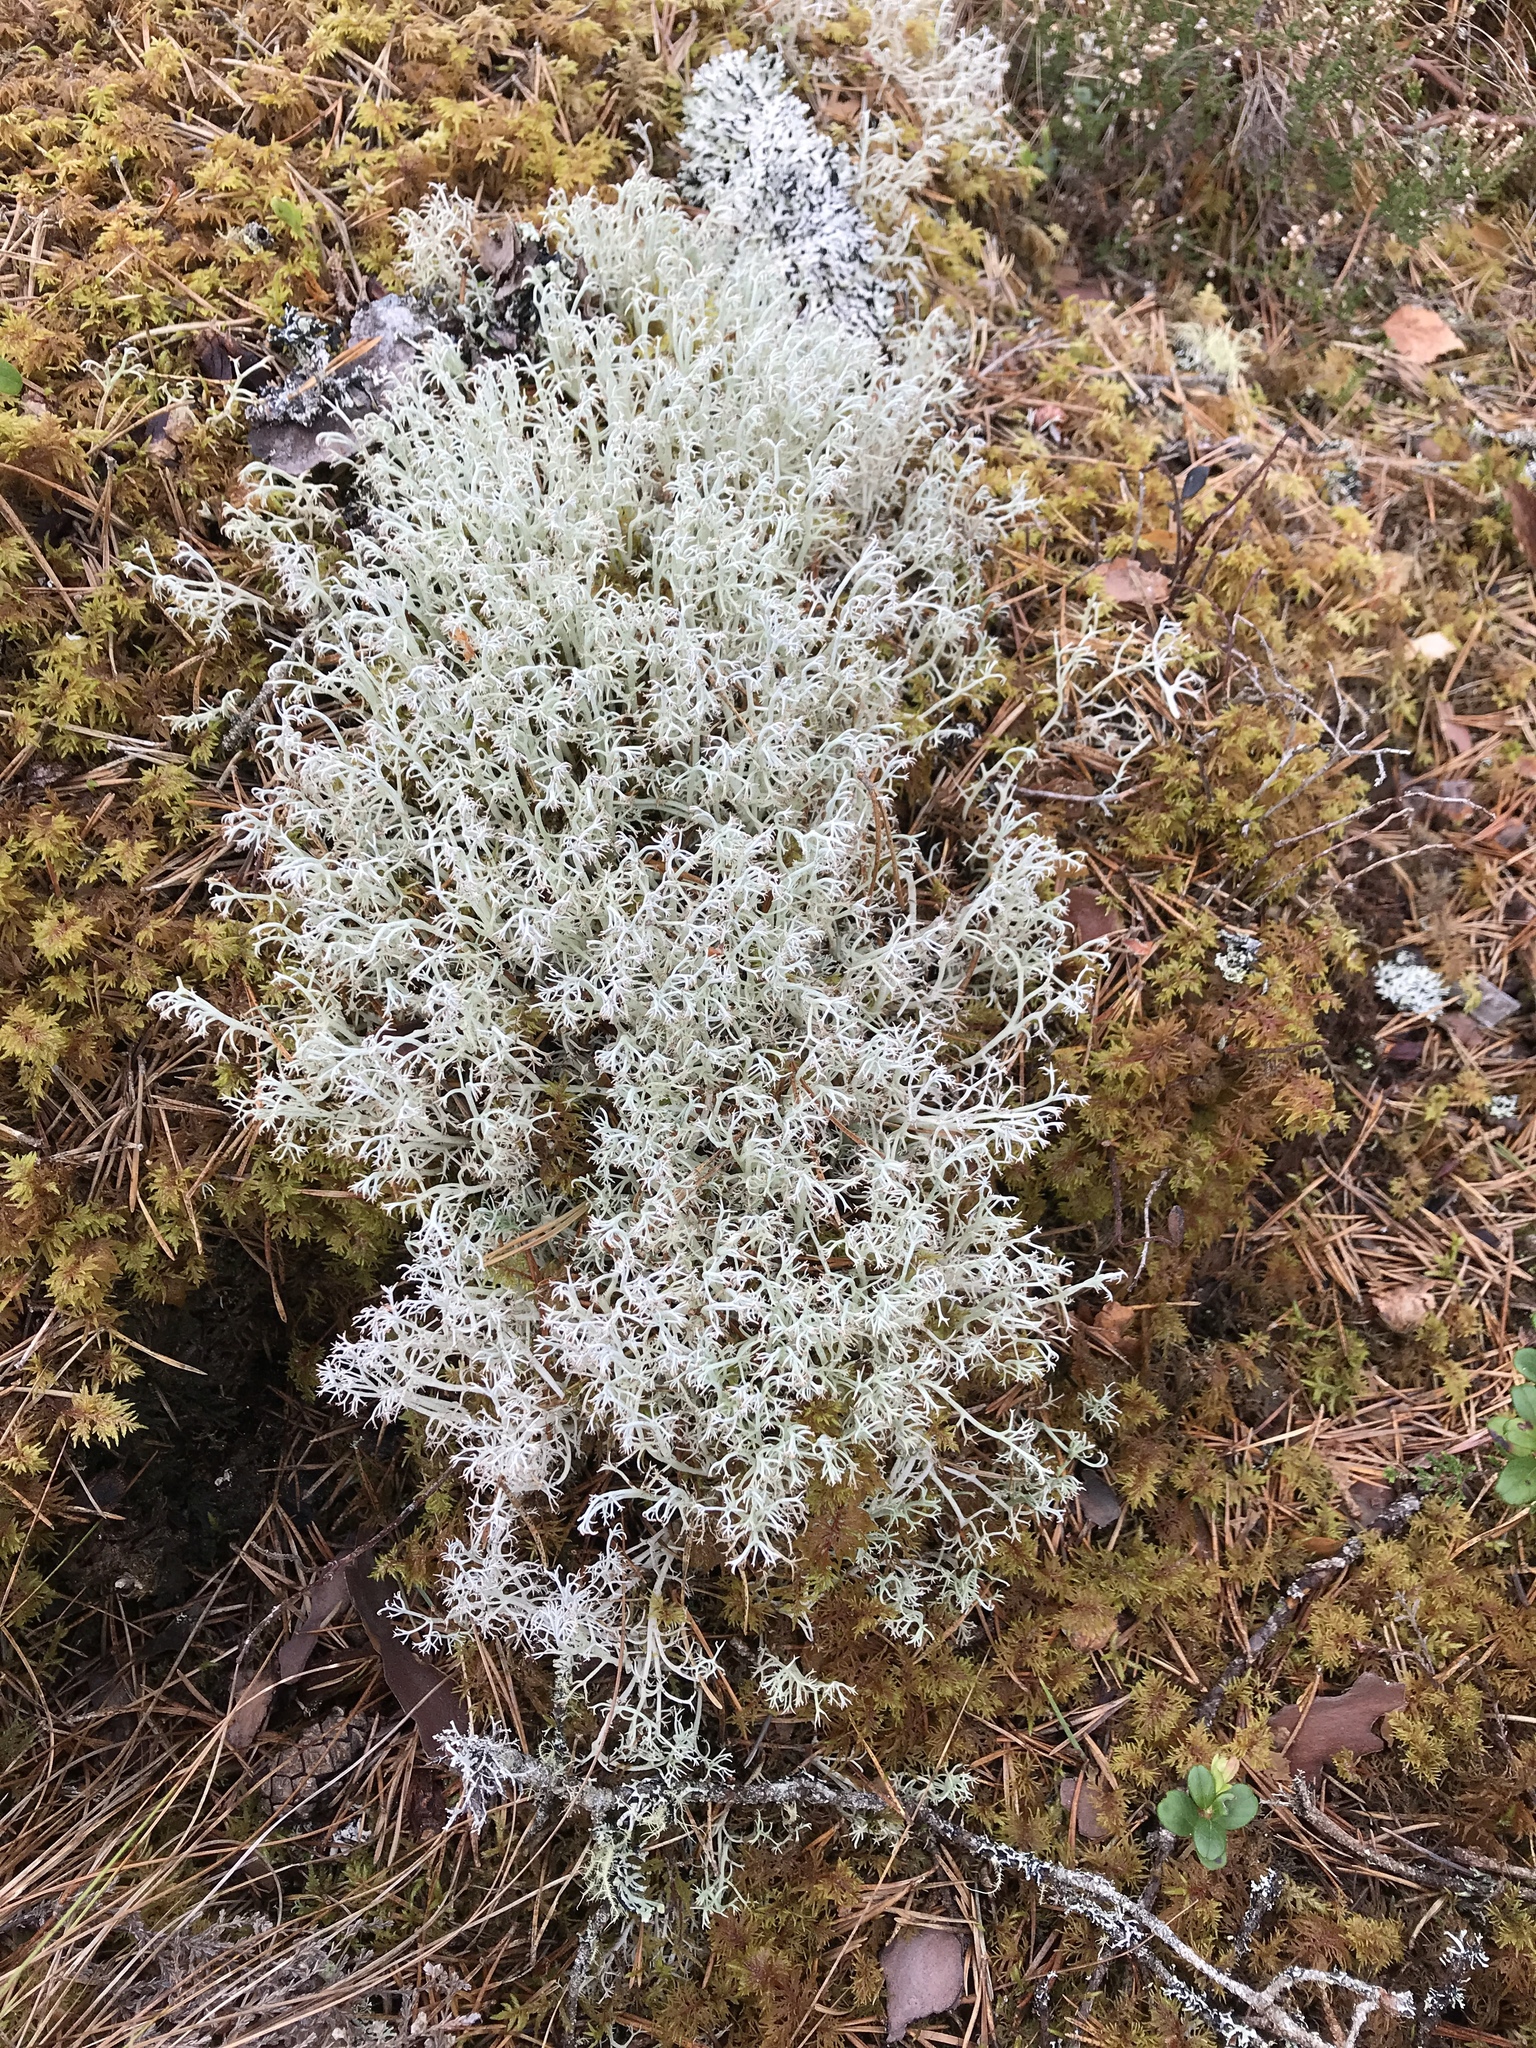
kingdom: Fungi
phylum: Ascomycota
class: Lecanoromycetes
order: Lecanorales
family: Cladoniaceae
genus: Cladonia
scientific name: Cladonia arbuscula
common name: Reindeer lichen
